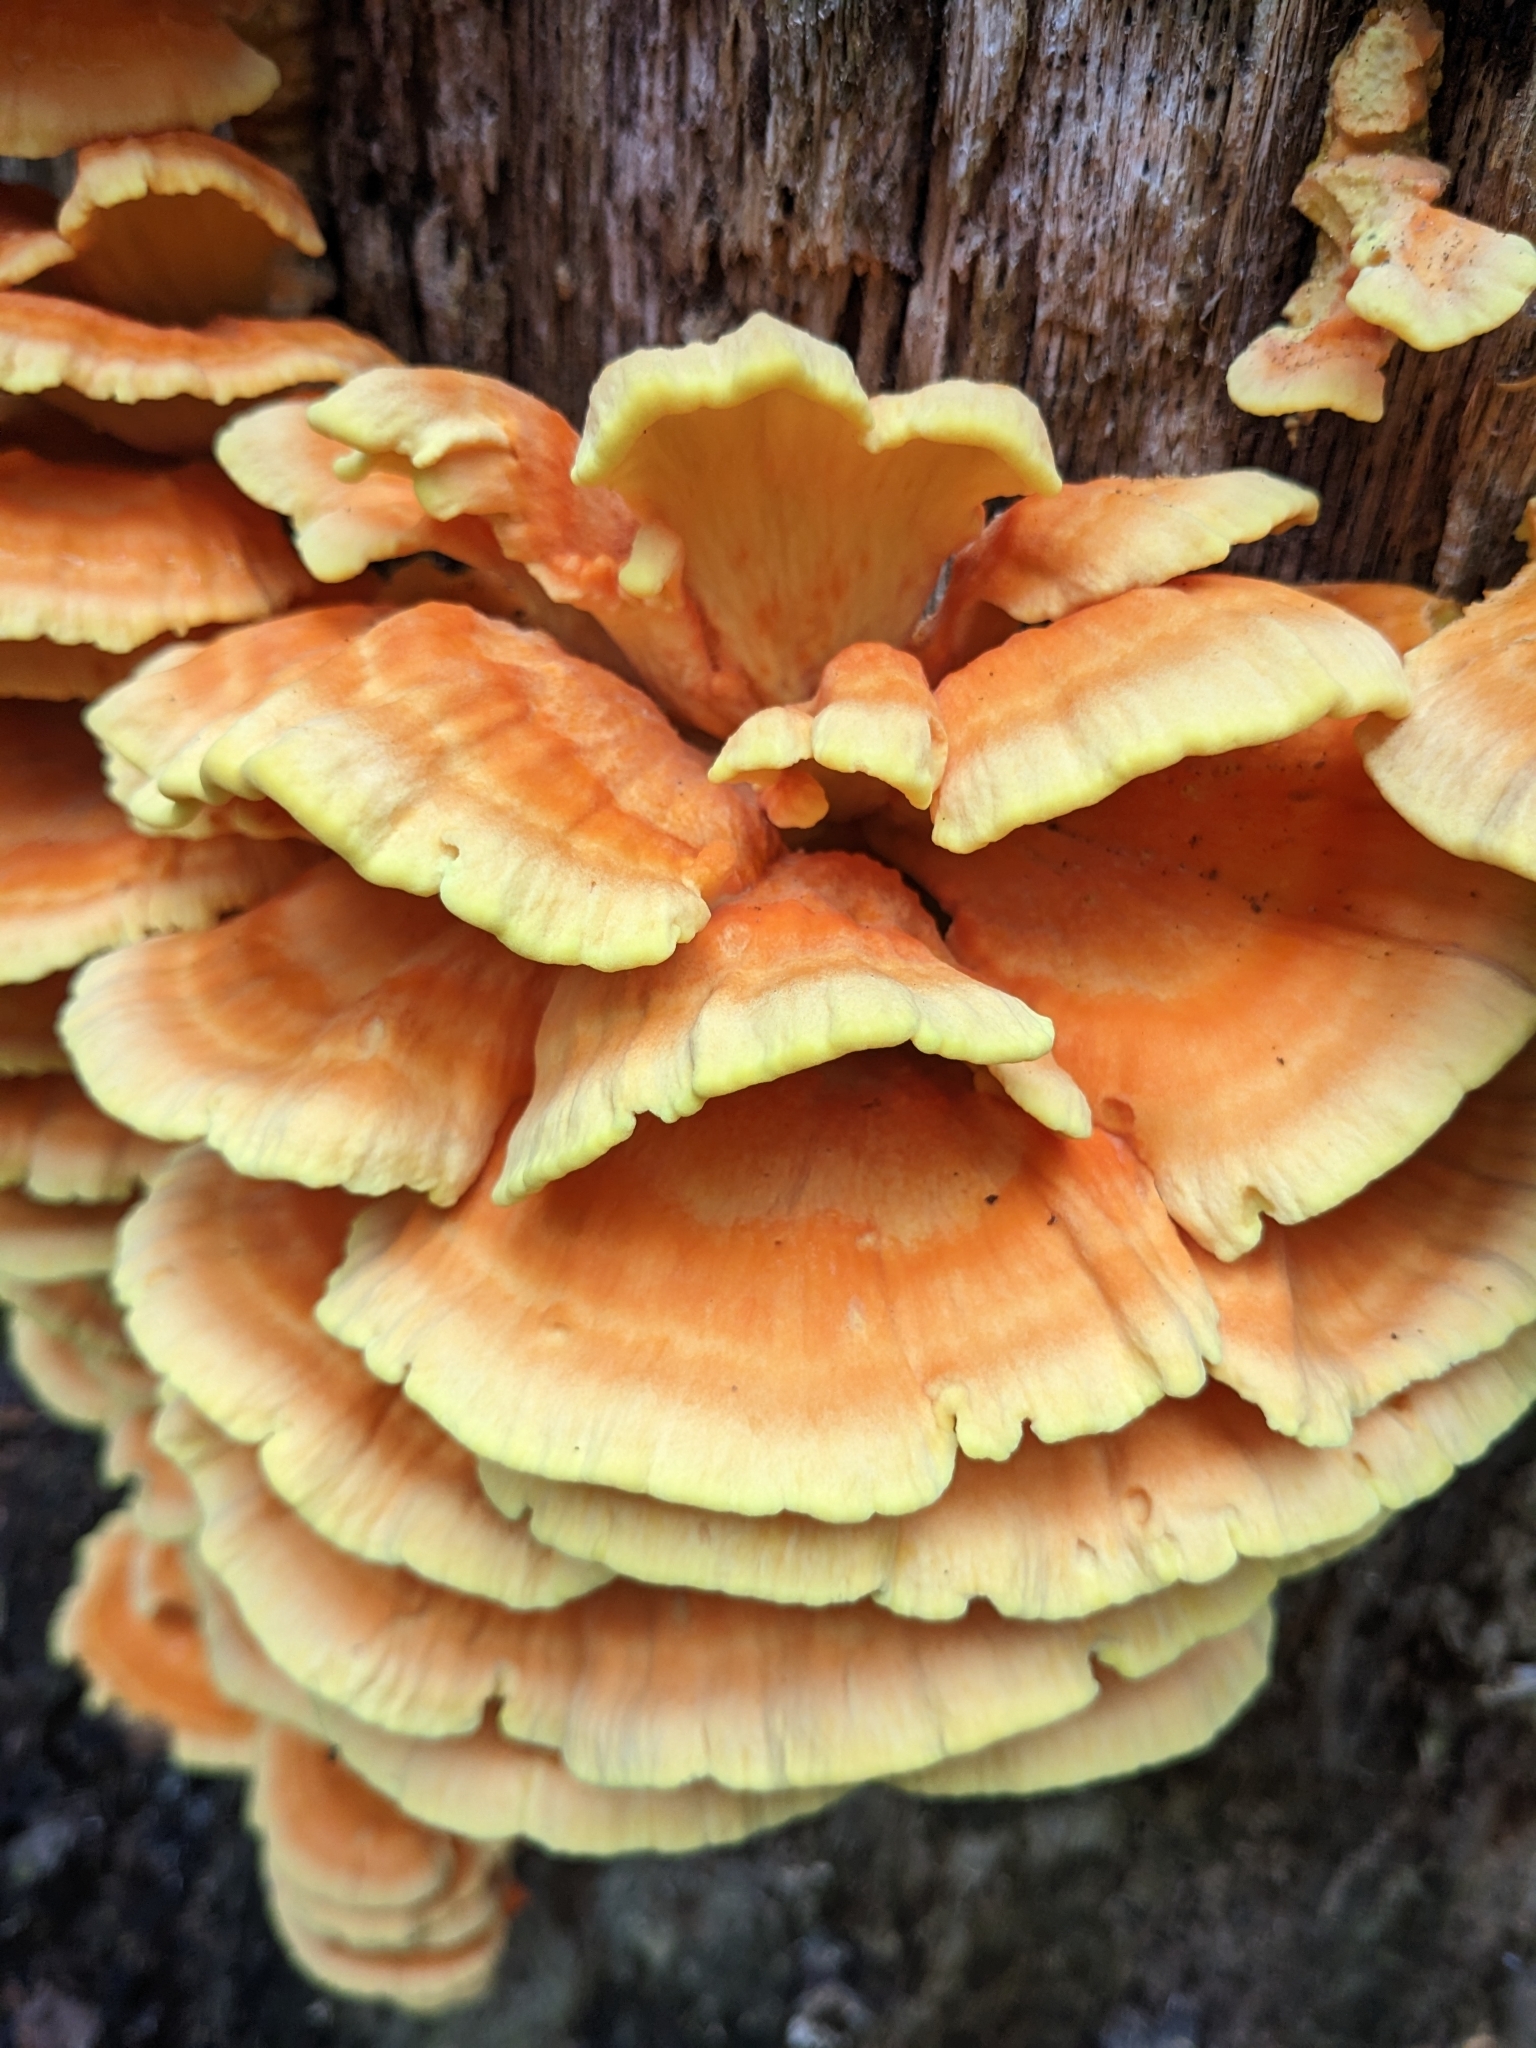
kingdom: Fungi
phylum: Basidiomycota
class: Agaricomycetes
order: Polyporales
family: Laetiporaceae
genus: Laetiporus
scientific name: Laetiporus sulphureus
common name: Chicken of the woods
